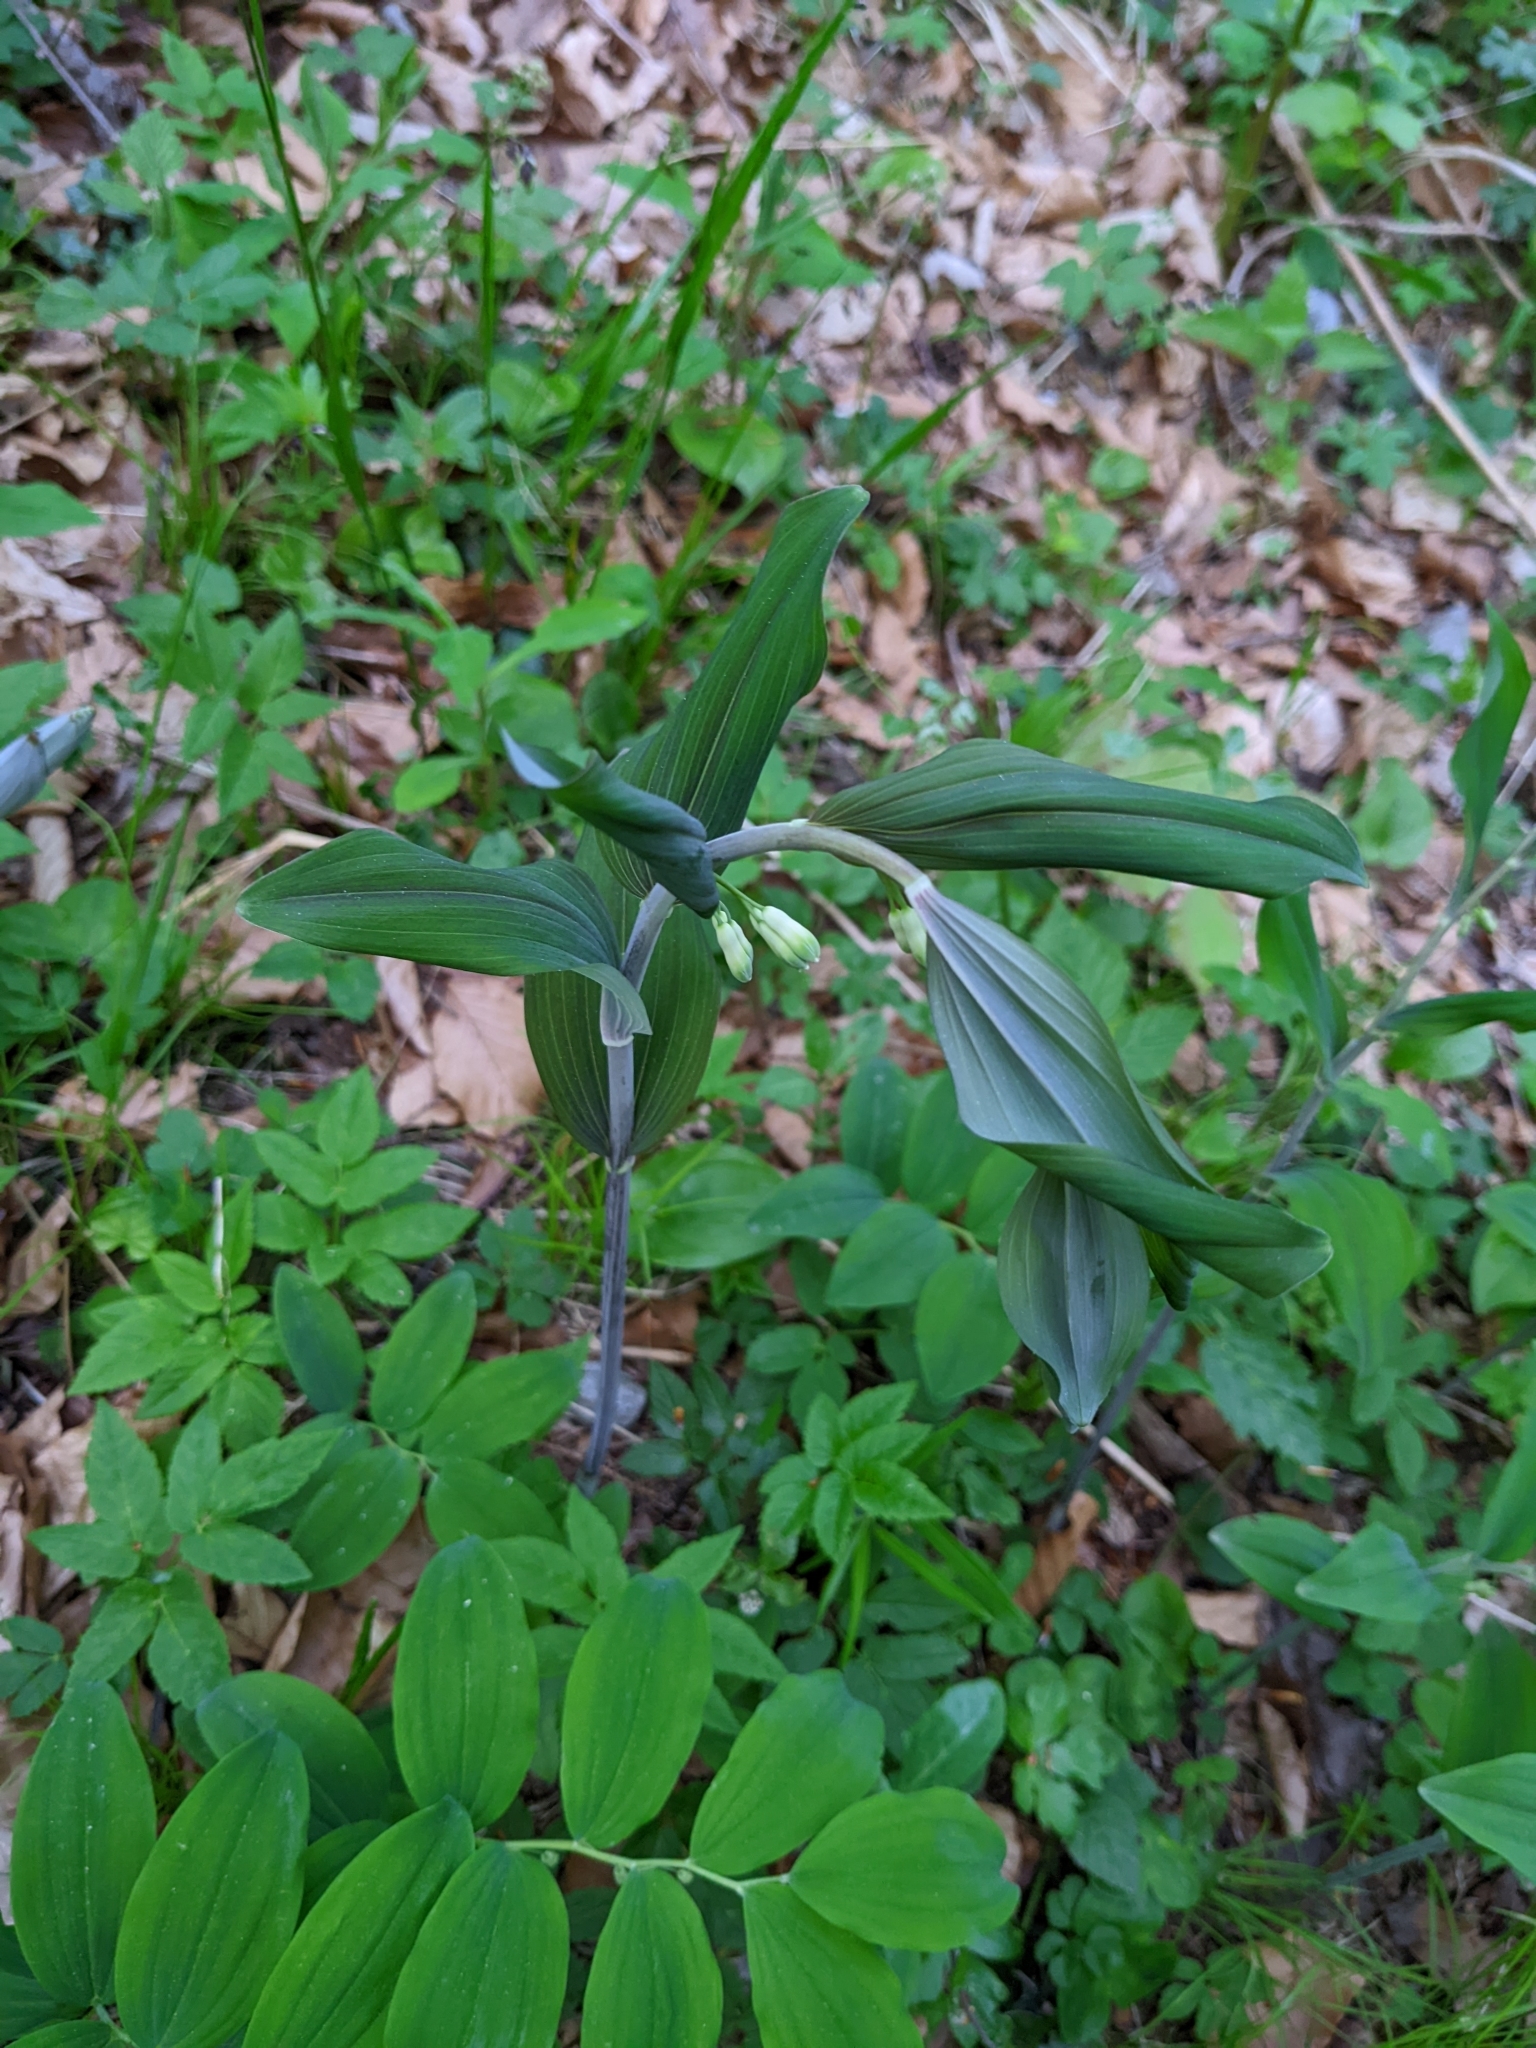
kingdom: Plantae
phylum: Tracheophyta
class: Liliopsida
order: Asparagales
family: Asparagaceae
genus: Polygonatum
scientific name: Polygonatum multiflorum
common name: Solomon's-seal
